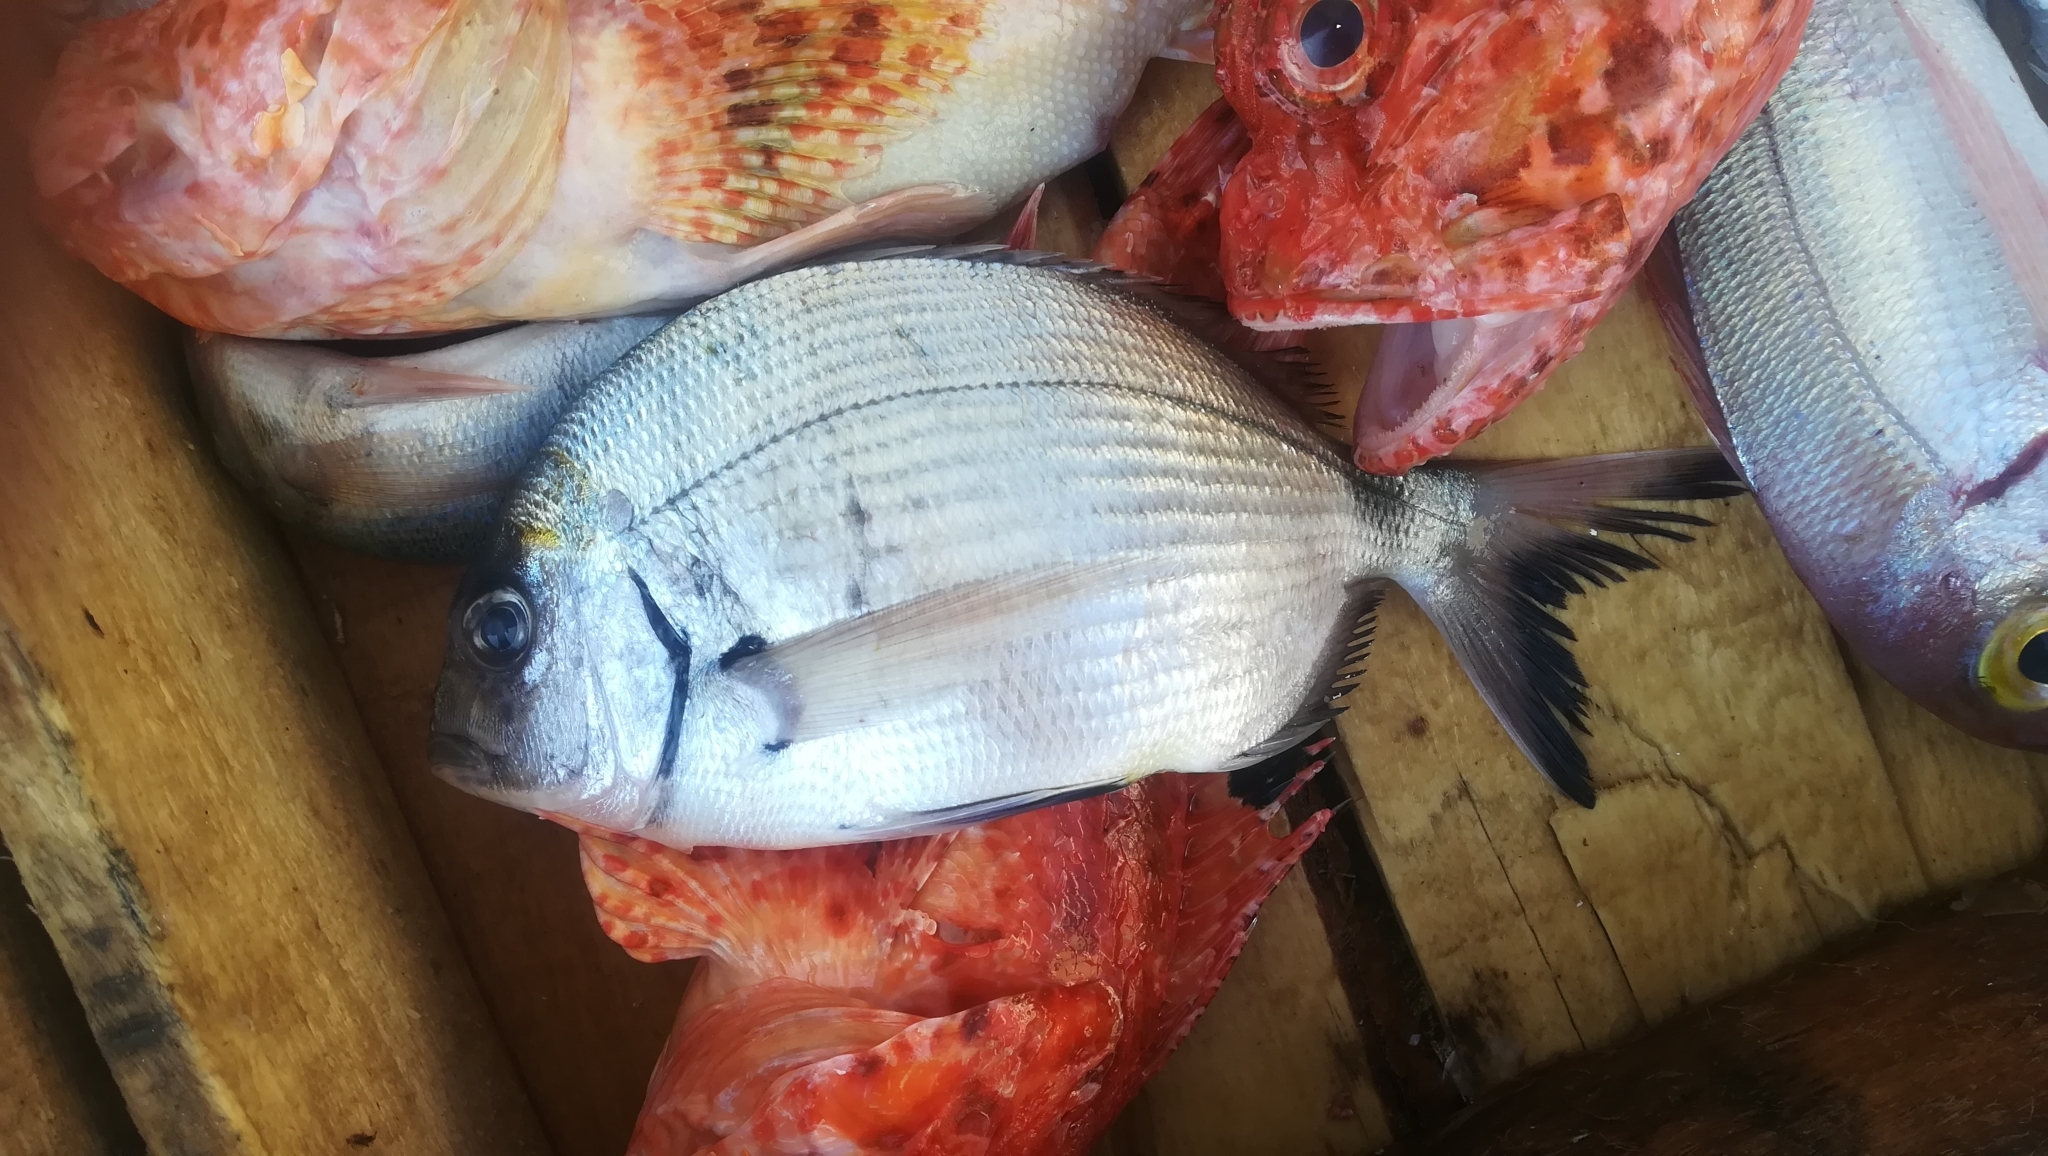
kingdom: Animalia
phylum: Chordata
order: Perciformes
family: Sparidae
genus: Diplodus
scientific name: Diplodus sargus
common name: White seabream
